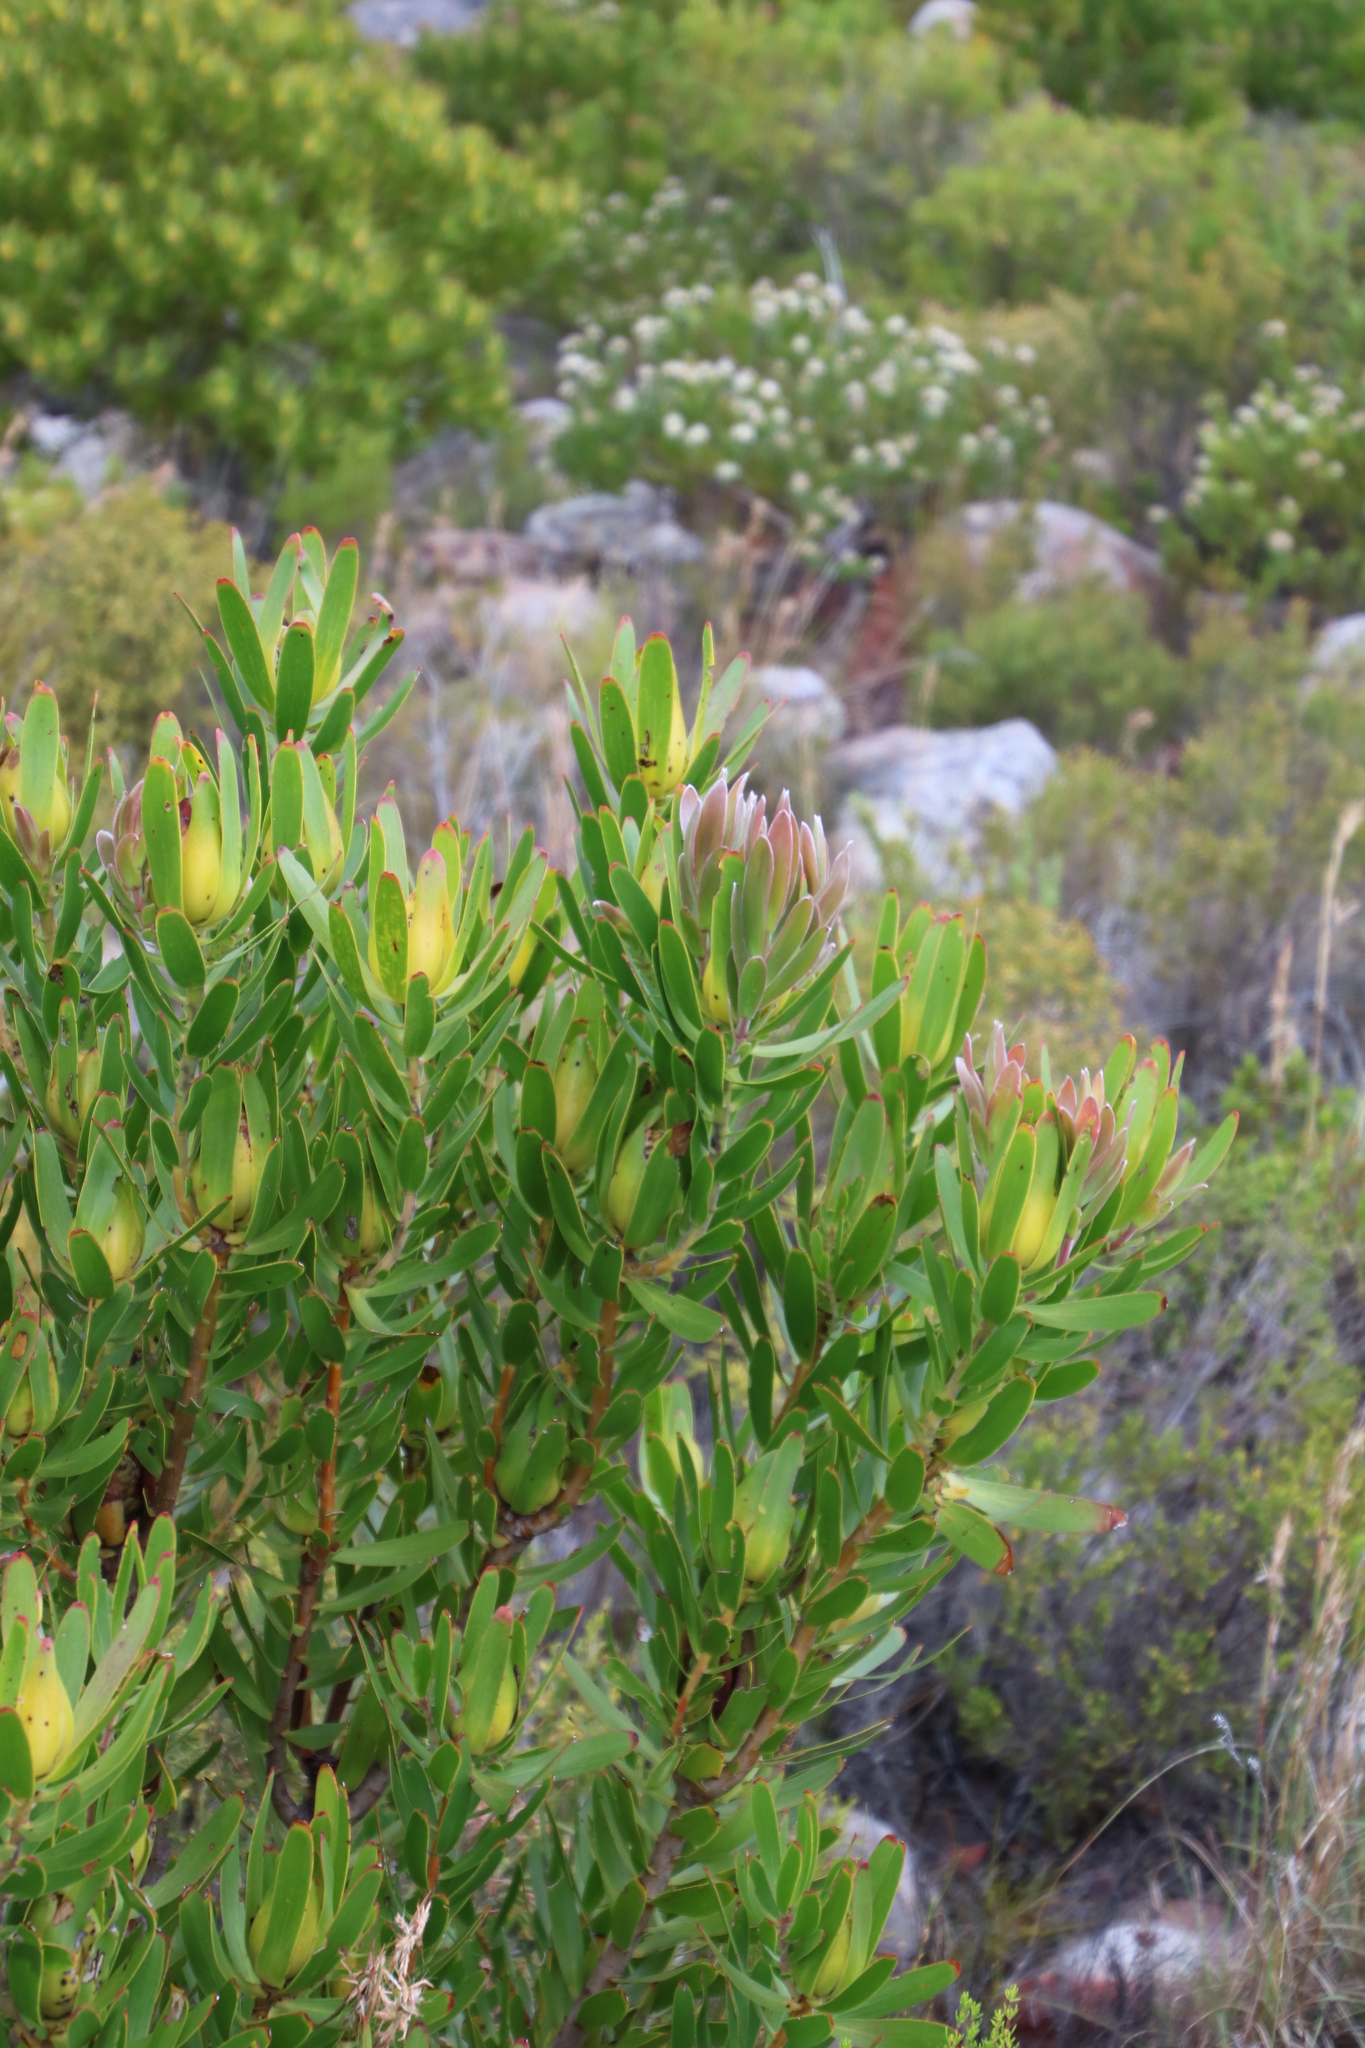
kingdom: Plantae
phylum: Tracheophyta
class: Magnoliopsida
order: Proteales
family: Proteaceae
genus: Leucadendron
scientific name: Leucadendron laureolum
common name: Golden sunshinebush
